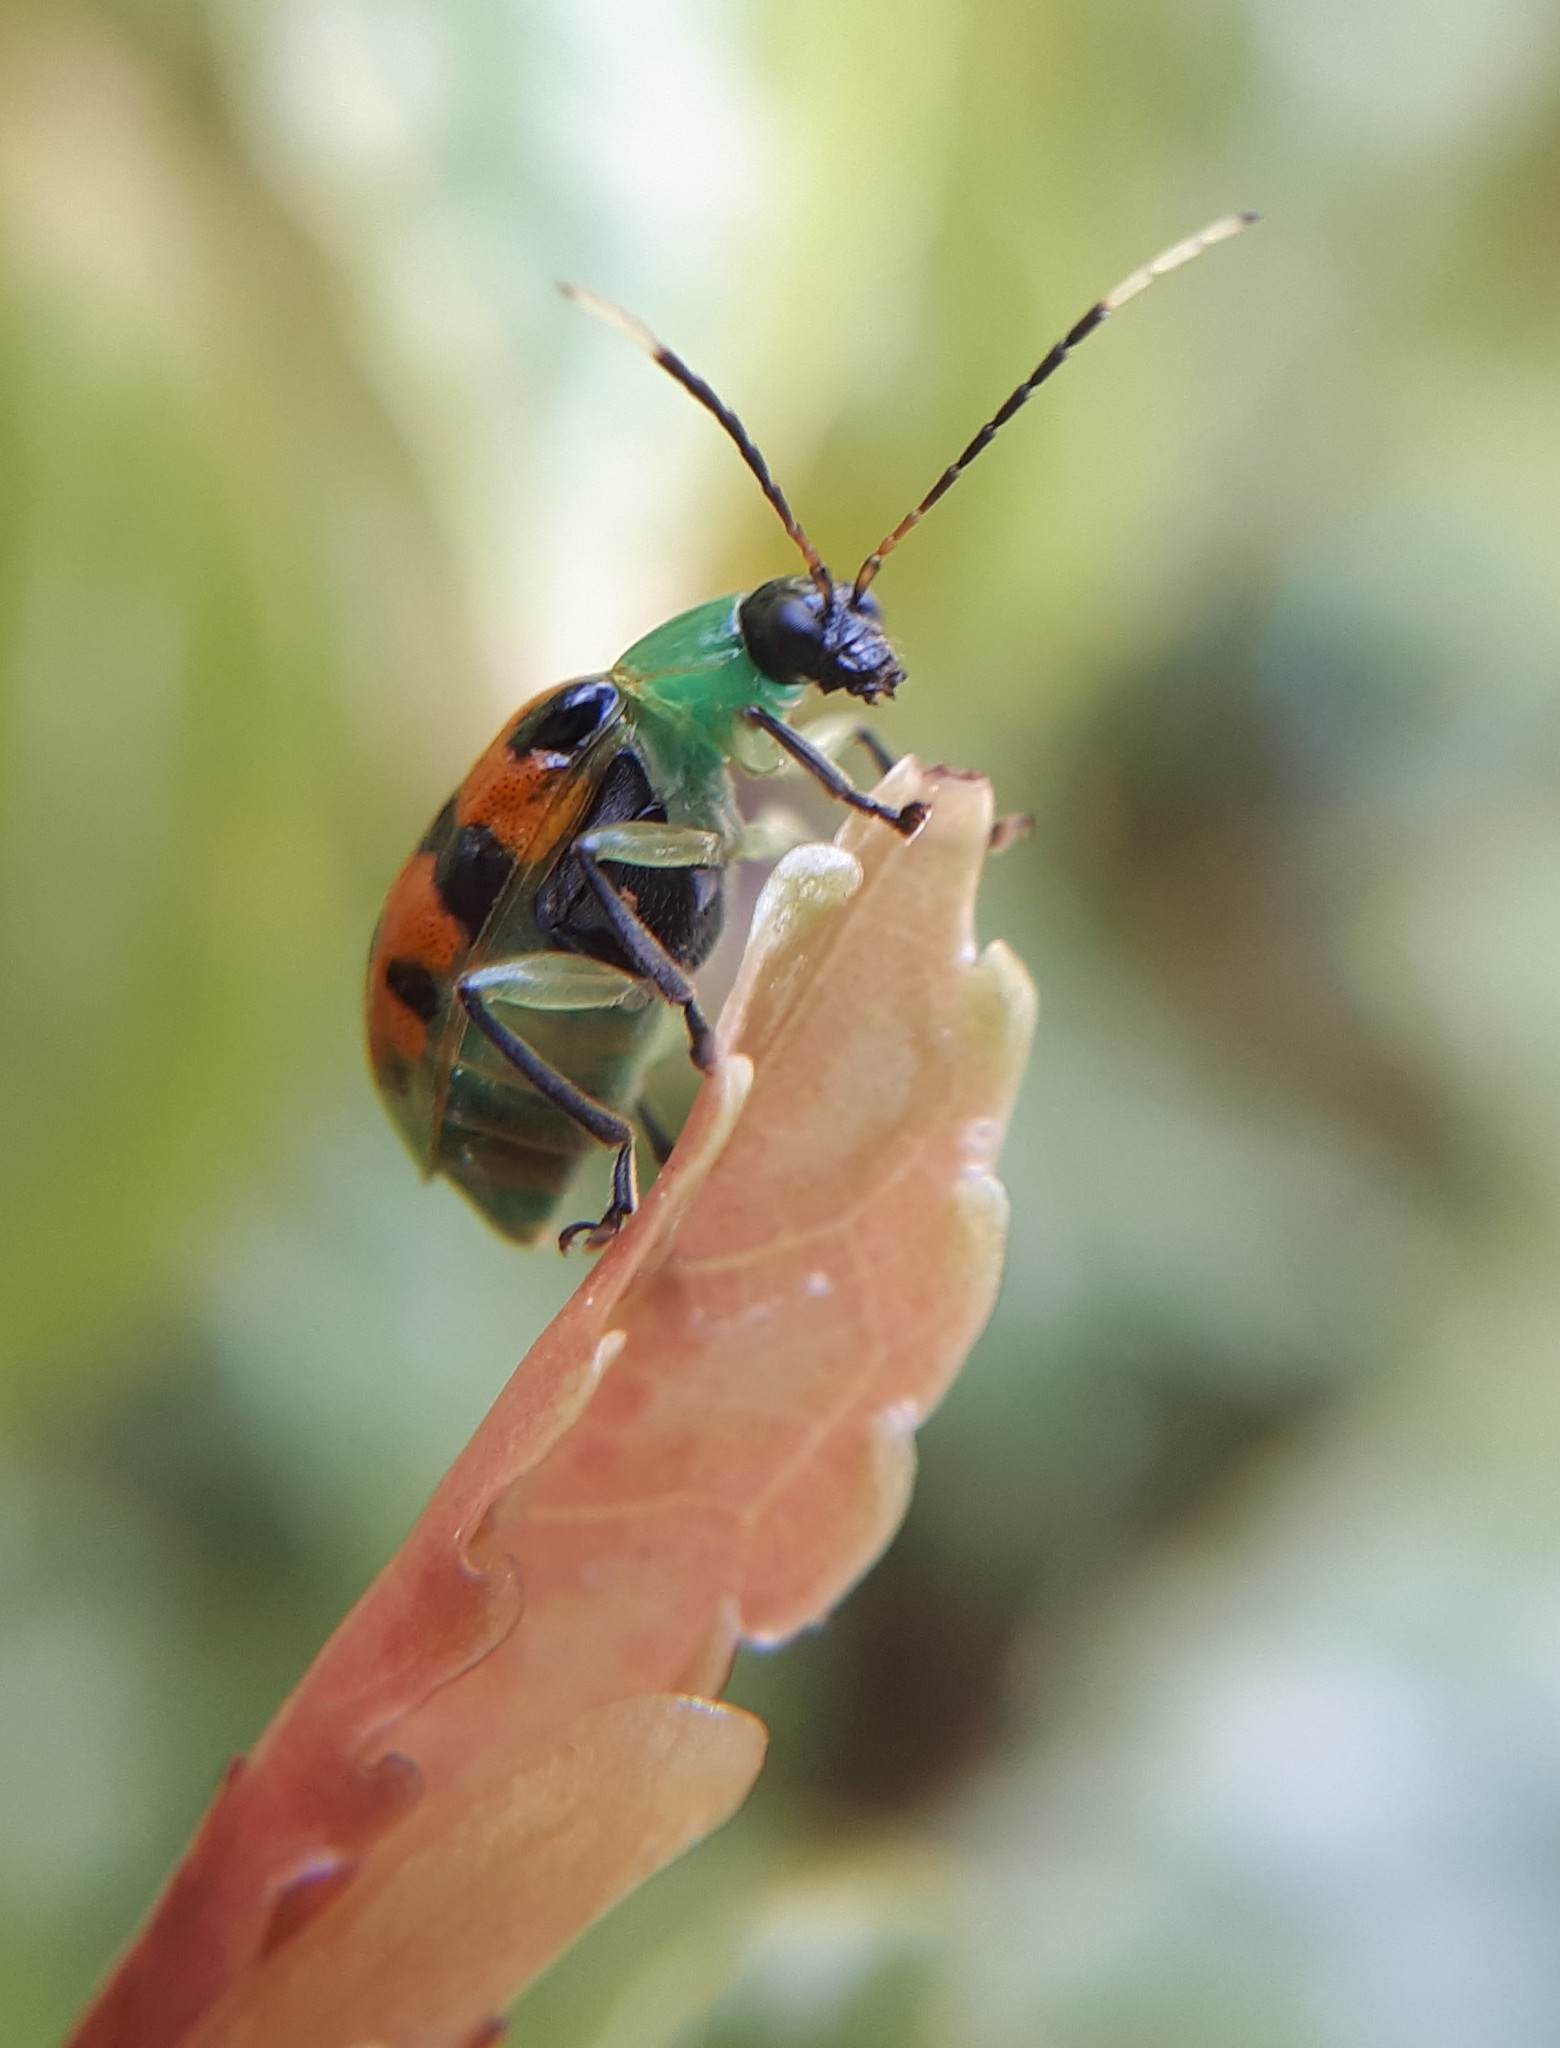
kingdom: Animalia
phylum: Arthropoda
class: Insecta
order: Coleoptera
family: Chrysomelidae
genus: Diabrotica
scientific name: Diabrotica limitata
